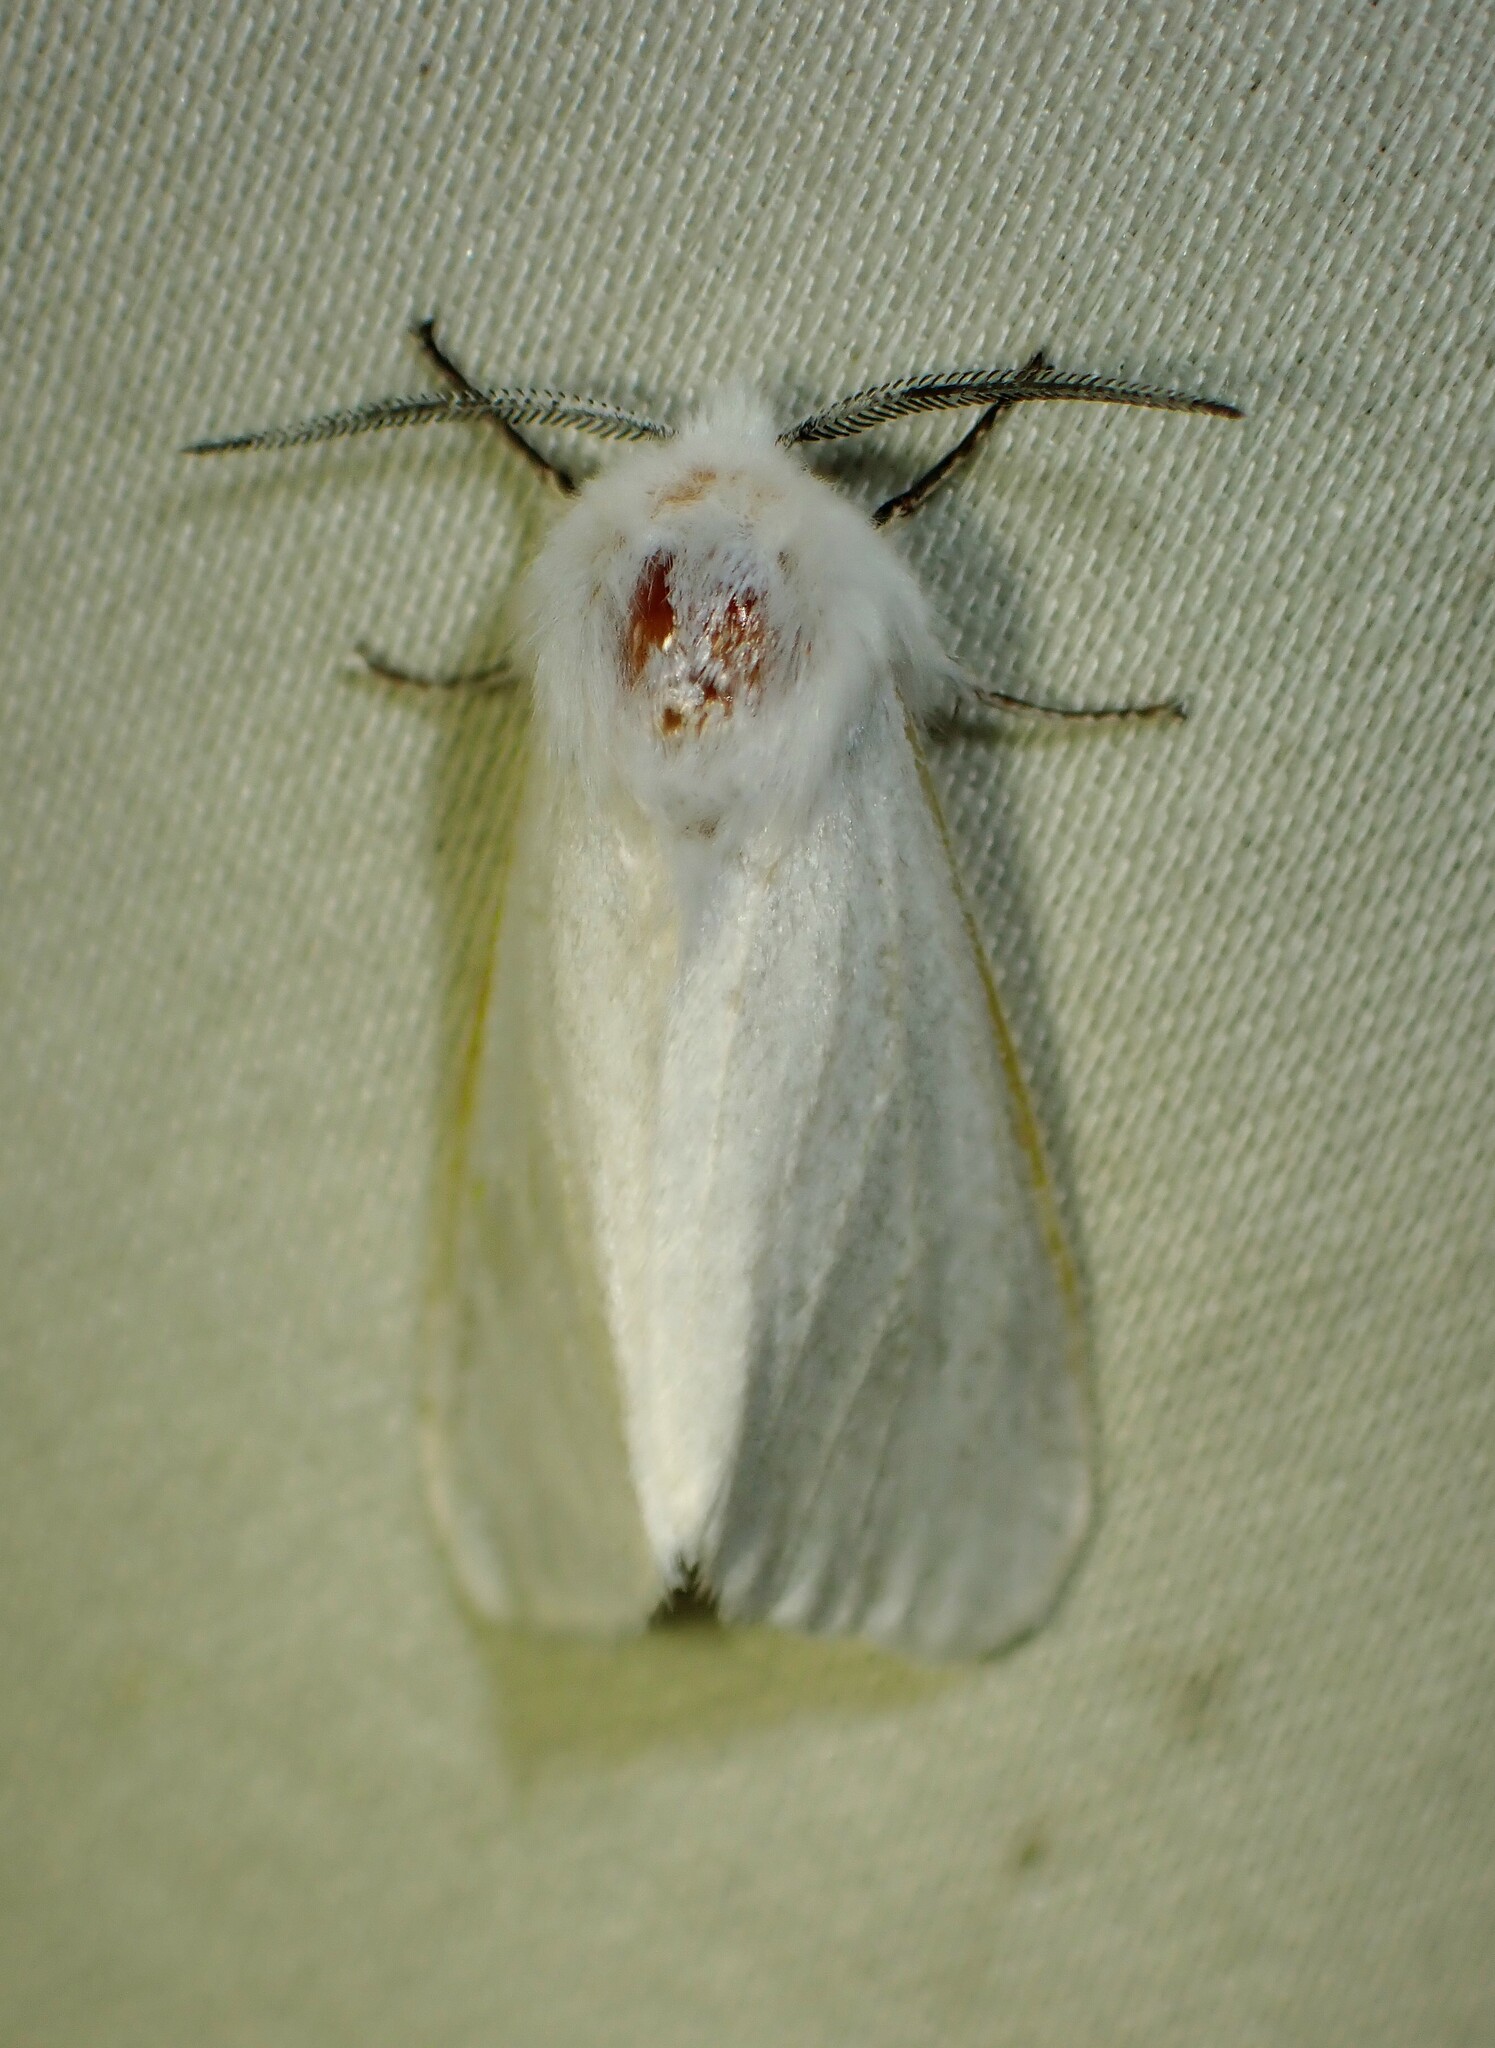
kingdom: Animalia
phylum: Arthropoda
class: Insecta
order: Lepidoptera
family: Erebidae
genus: Hyphantria
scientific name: Hyphantria cunea
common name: American white moth
